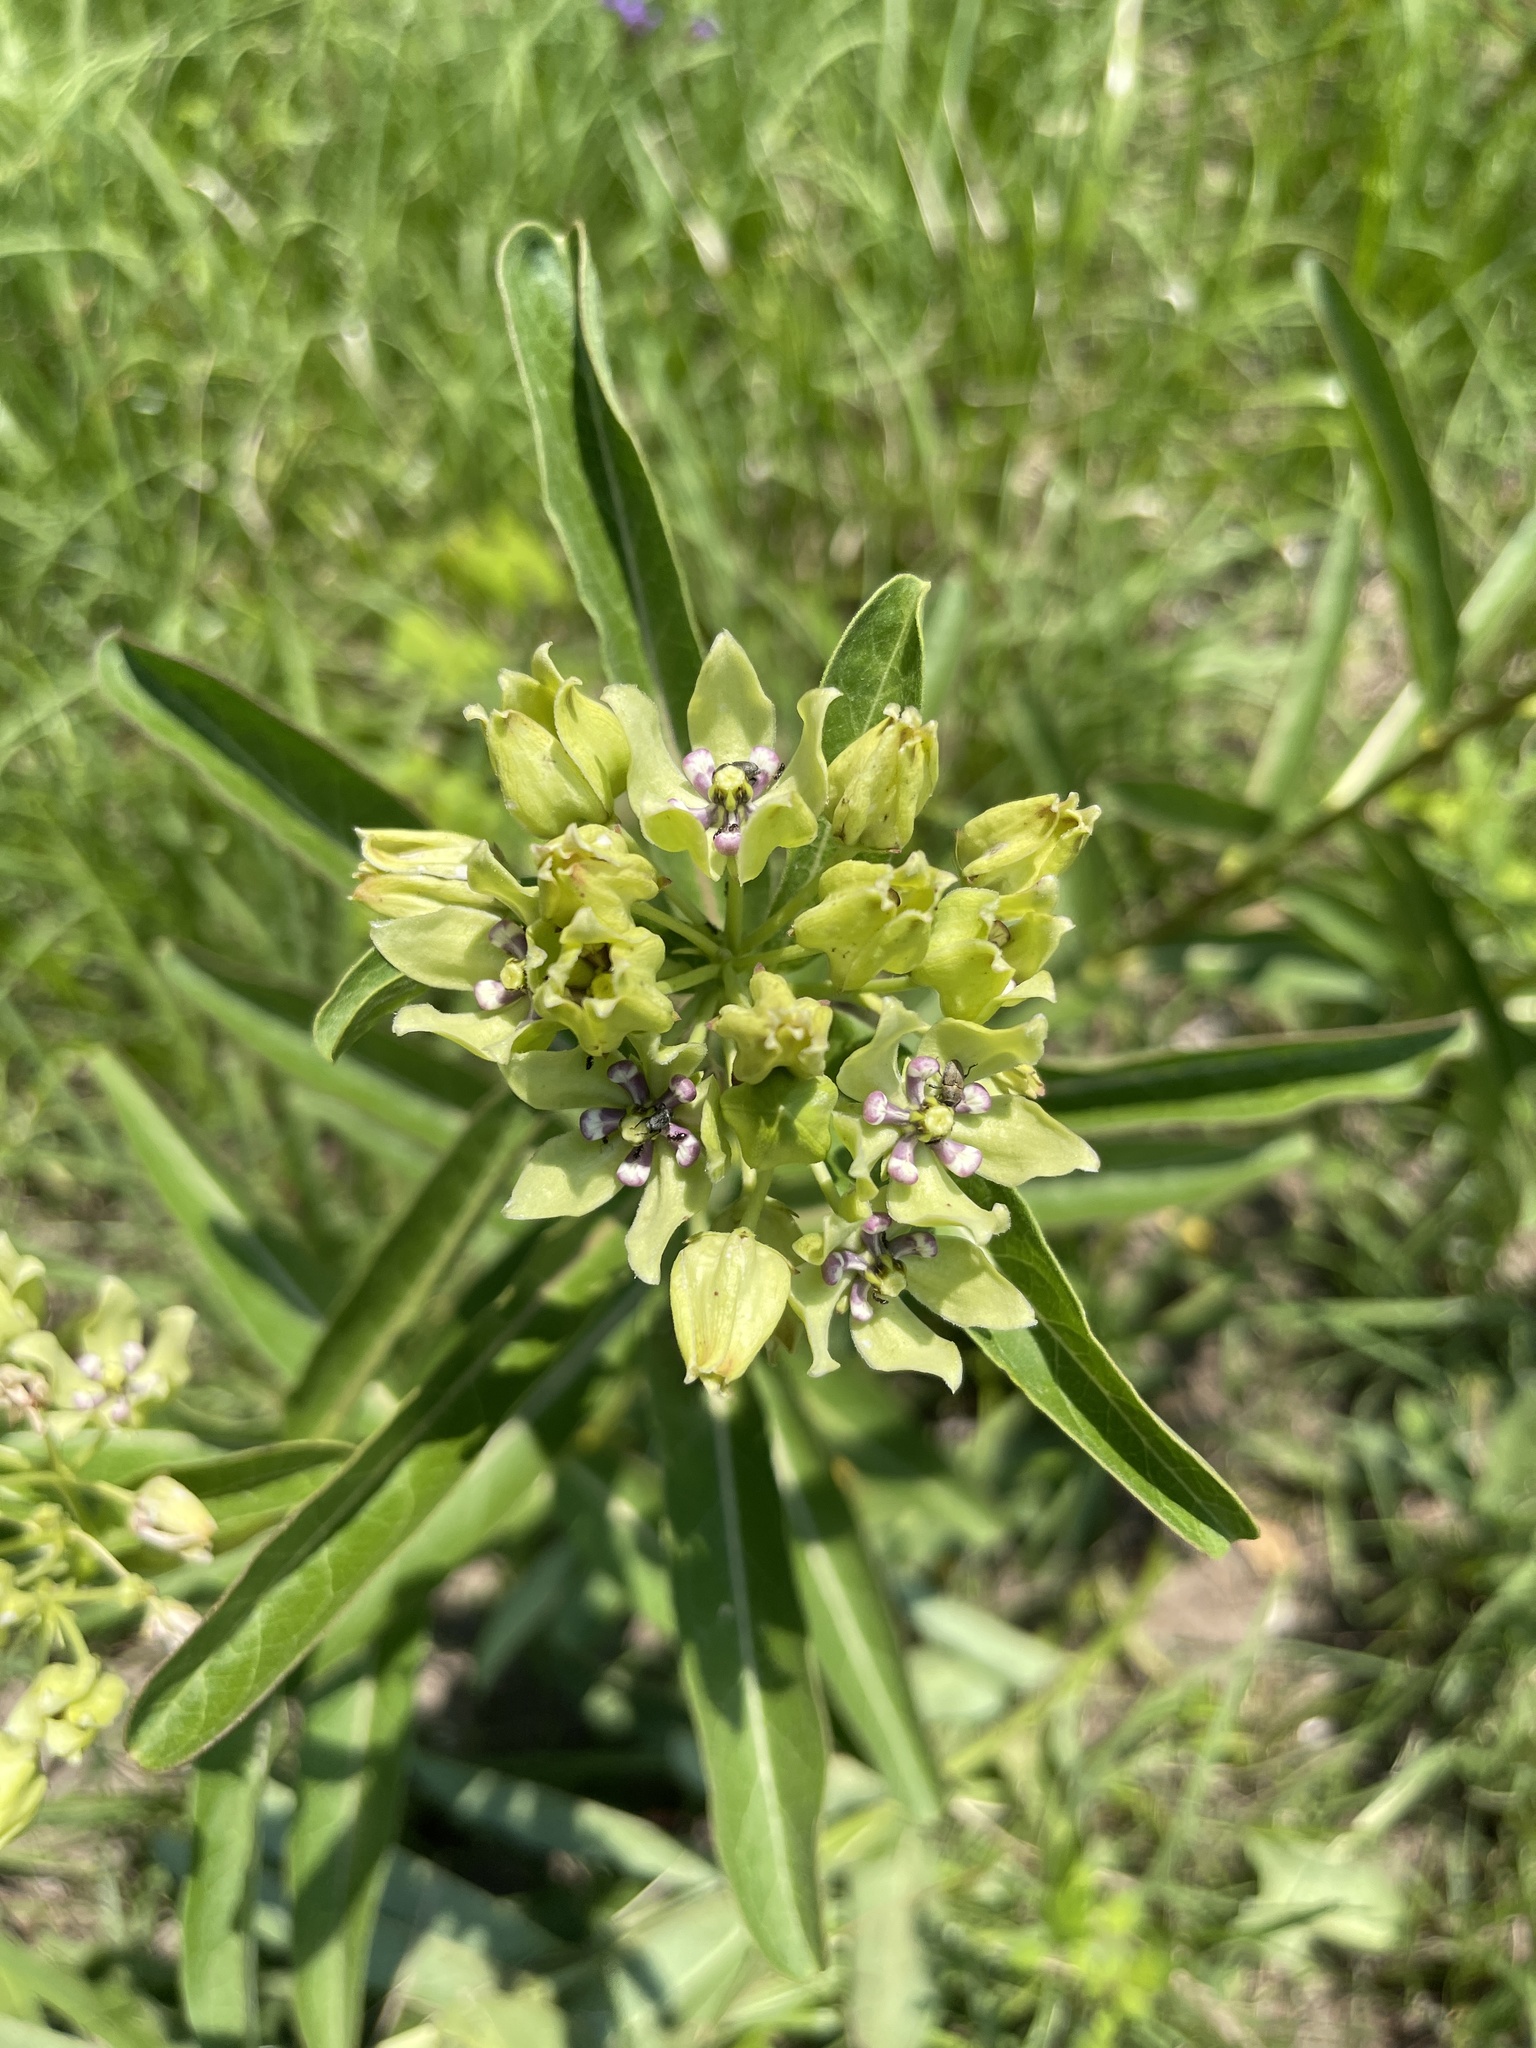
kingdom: Plantae
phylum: Tracheophyta
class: Magnoliopsida
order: Gentianales
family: Apocynaceae
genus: Asclepias
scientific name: Asclepias viridis
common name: Antelope-horns
